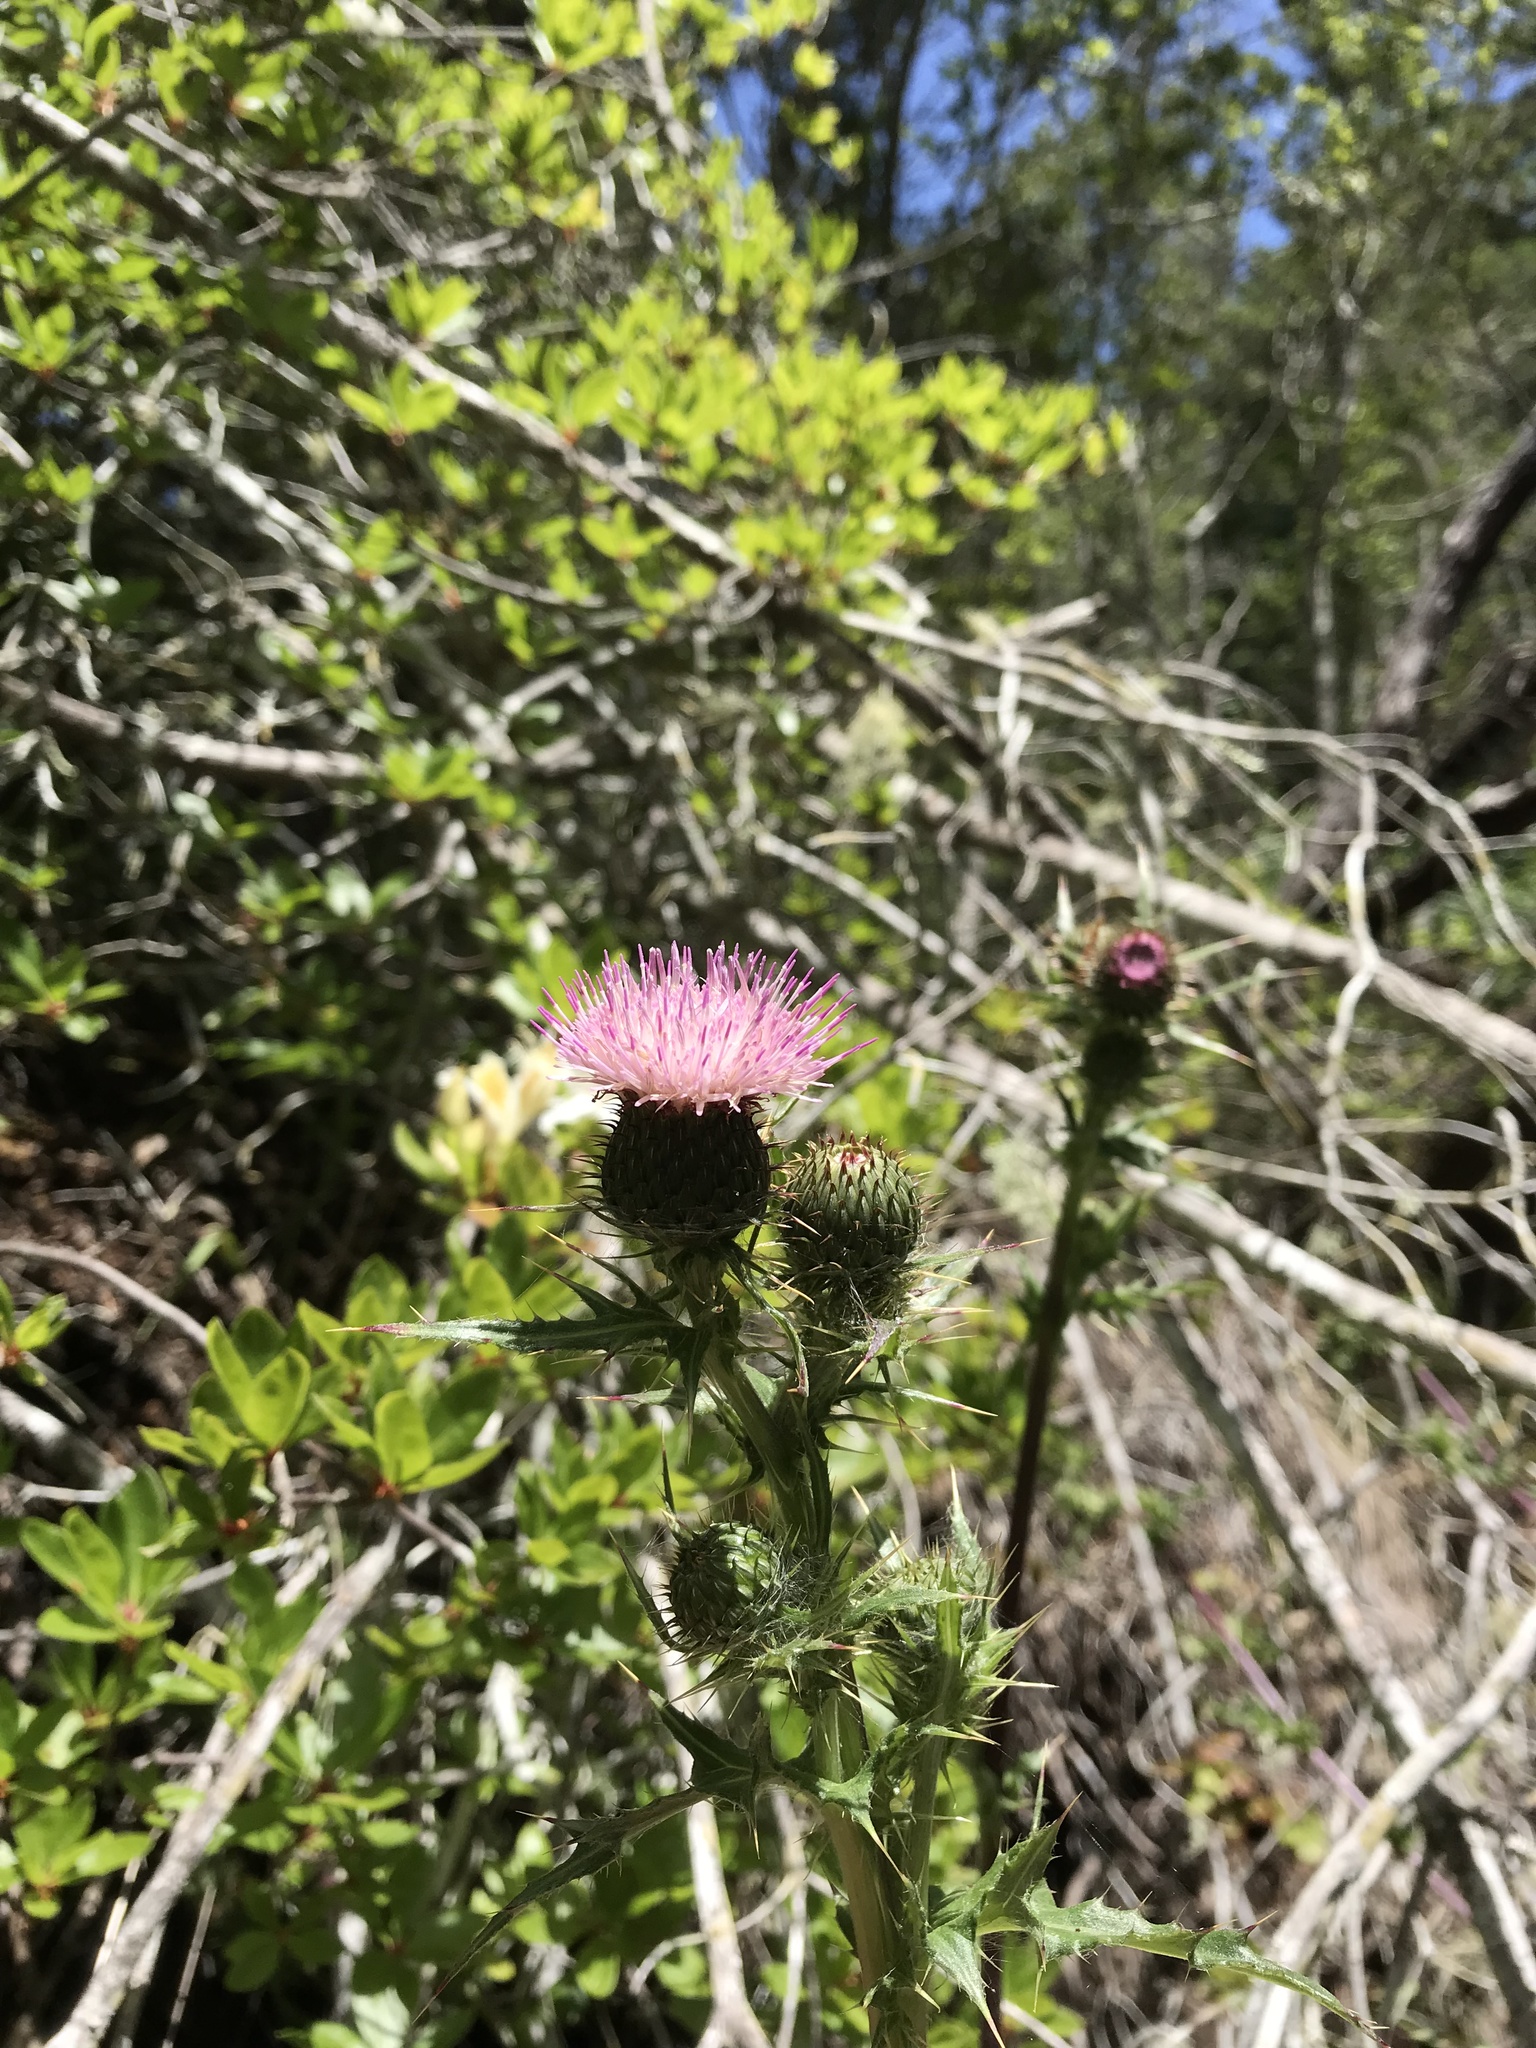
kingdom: Plantae
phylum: Tracheophyta
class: Magnoliopsida
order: Asterales
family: Asteraceae
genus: Cirsium
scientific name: Cirsium hydrophilum
